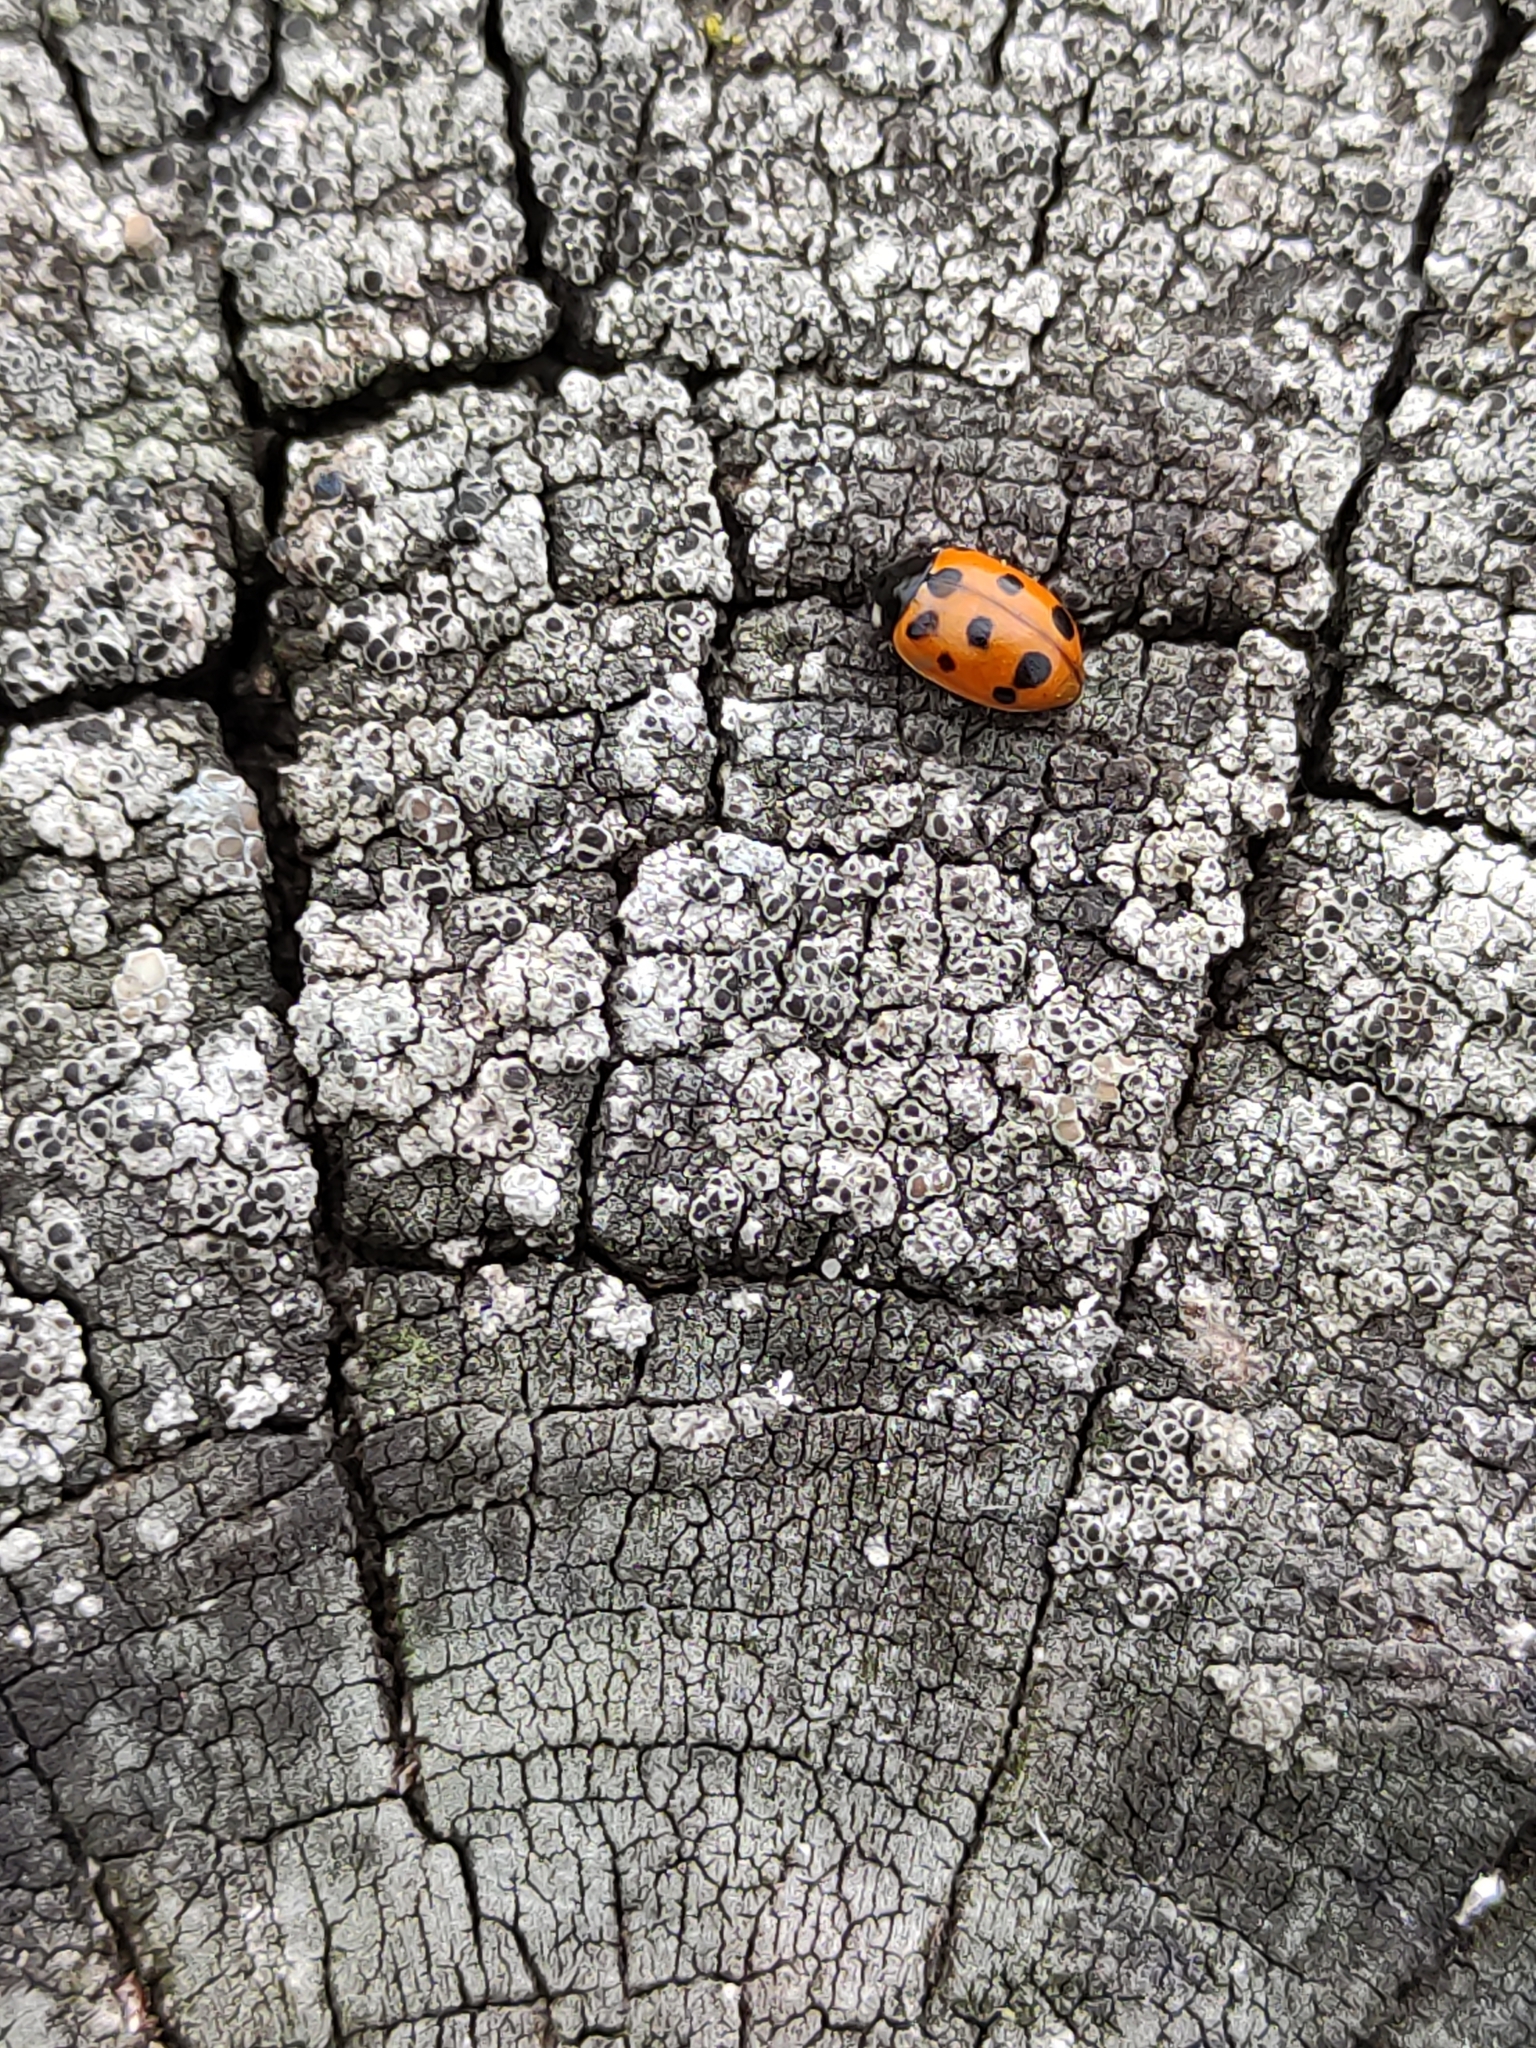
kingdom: Animalia
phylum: Arthropoda
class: Insecta
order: Coleoptera
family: Coccinellidae
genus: Coccinella
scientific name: Coccinella undecimpunctata
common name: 11-spot ladybird
